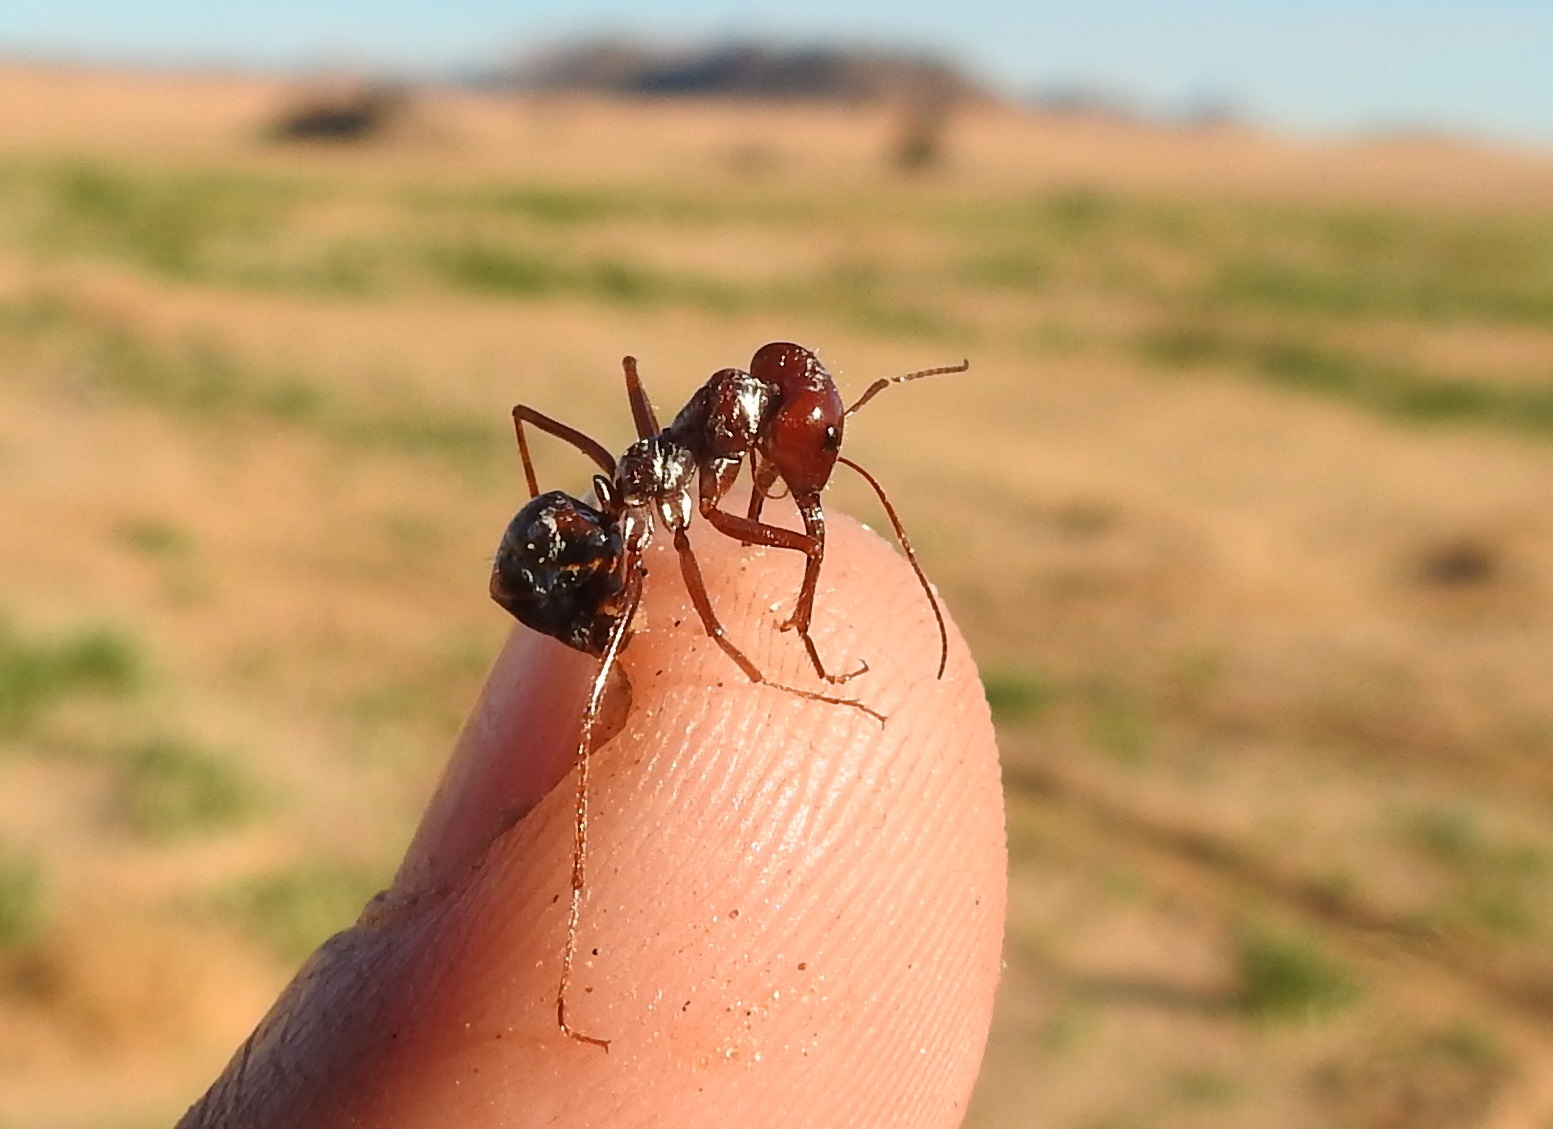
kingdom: Animalia
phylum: Arthropoda
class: Insecta
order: Hymenoptera
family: Formicidae
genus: Cataglyphis
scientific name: Cataglyphis bombycinus
